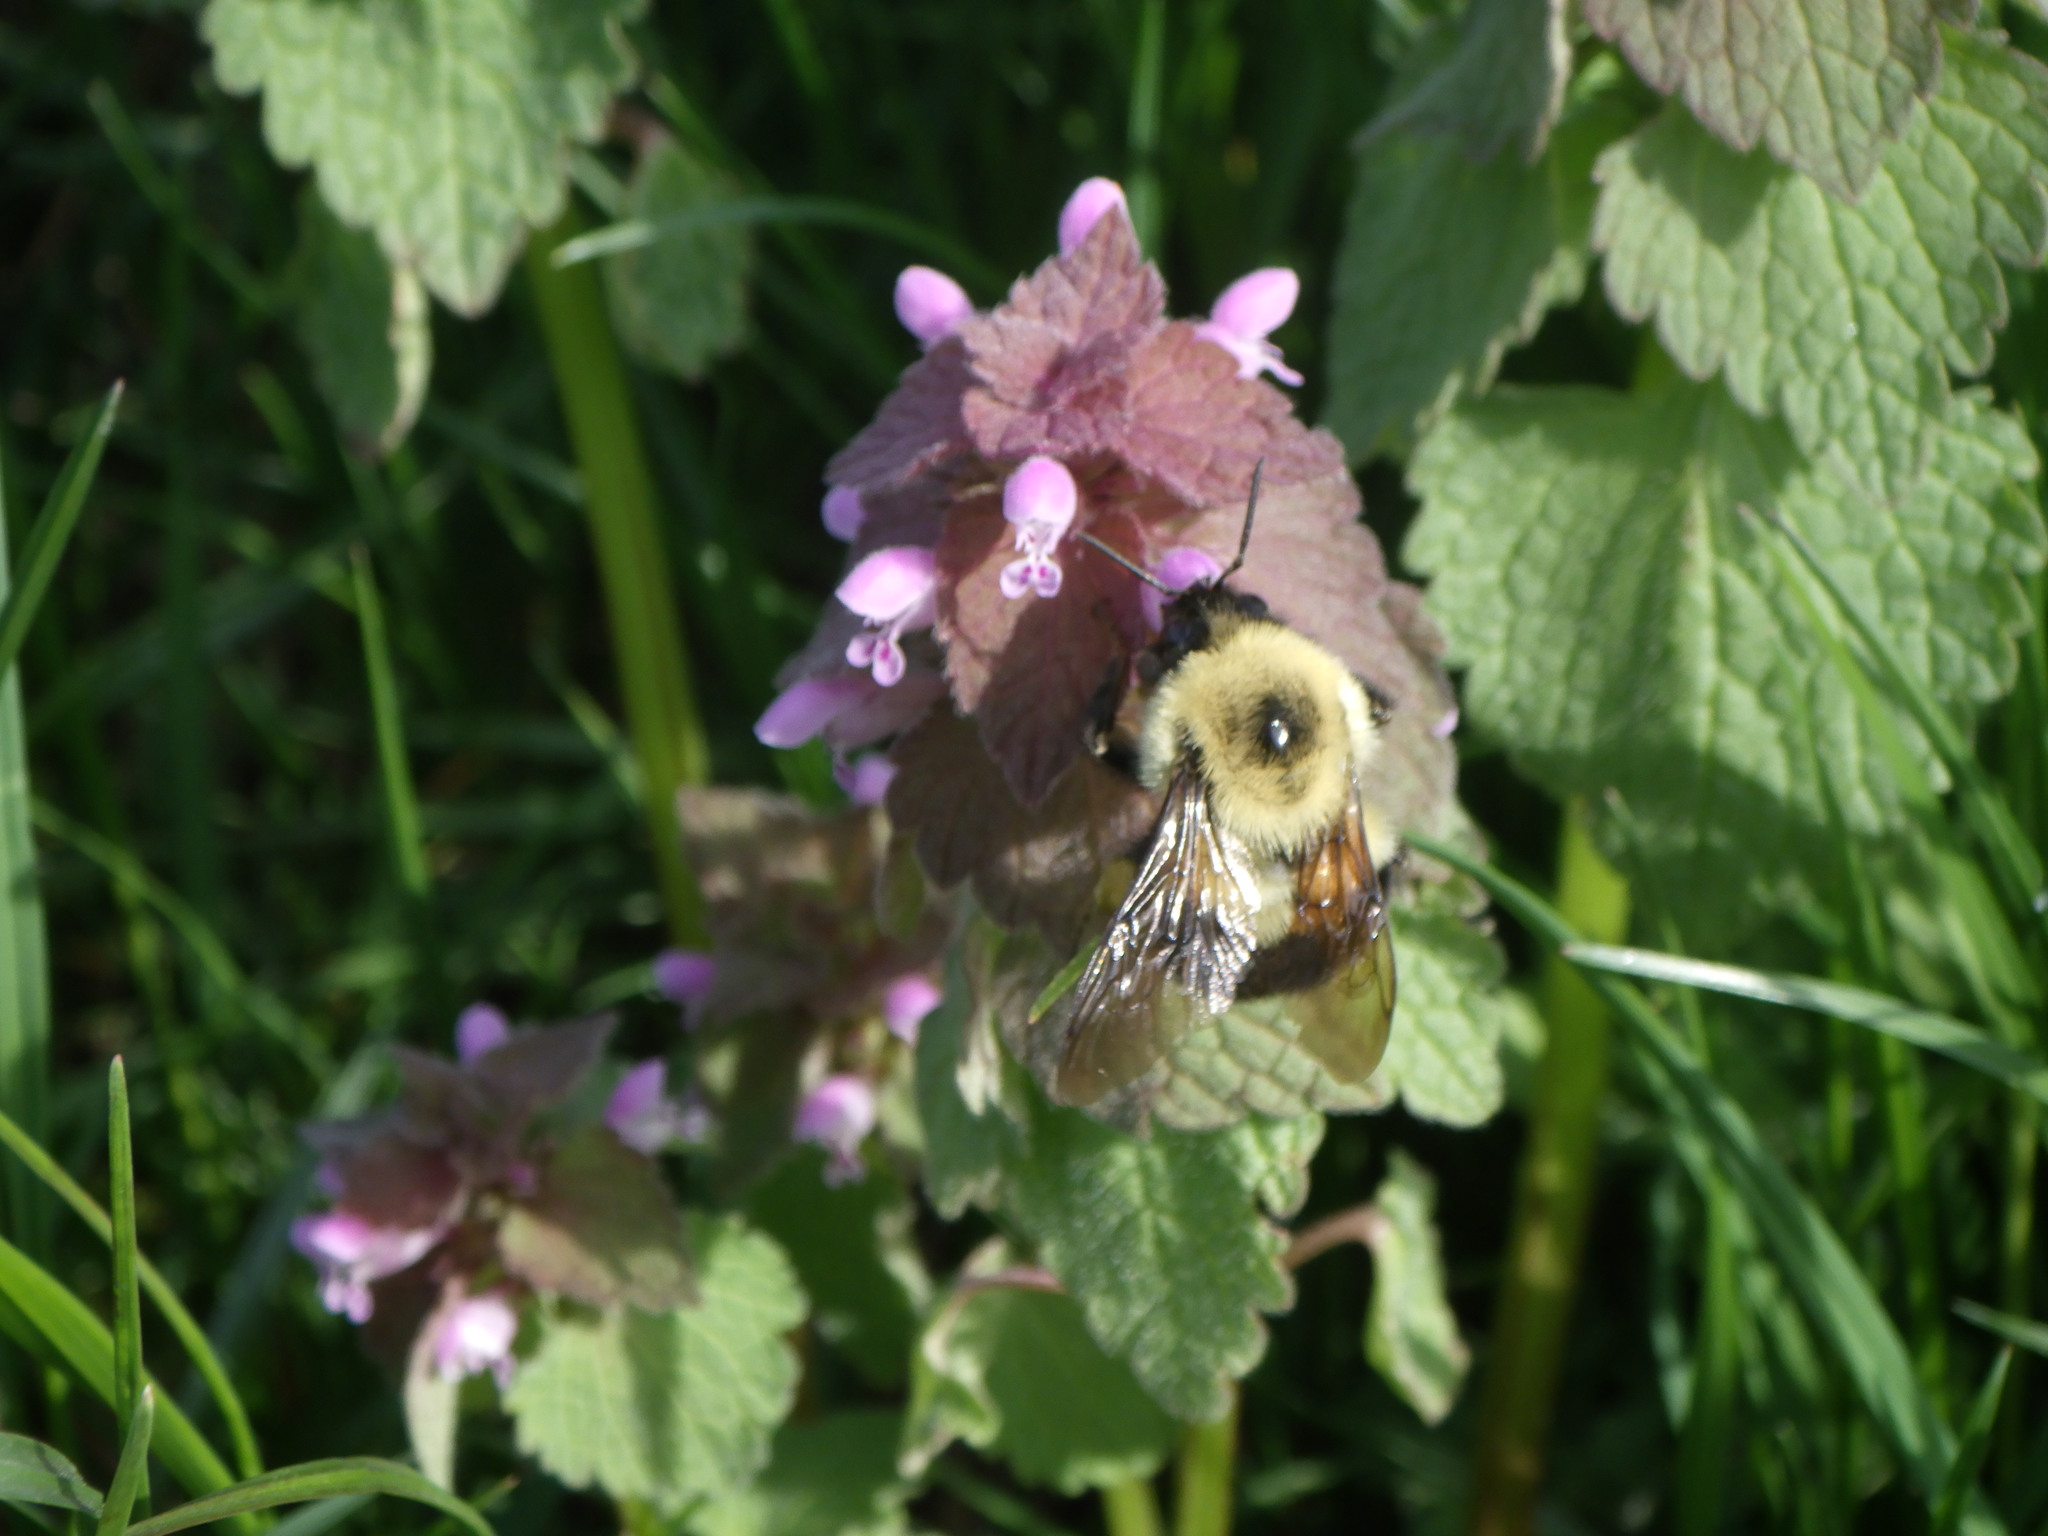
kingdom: Animalia
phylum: Arthropoda
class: Insecta
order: Hymenoptera
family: Apidae
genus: Bombus
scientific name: Bombus bimaculatus
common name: Two-spotted bumble bee
